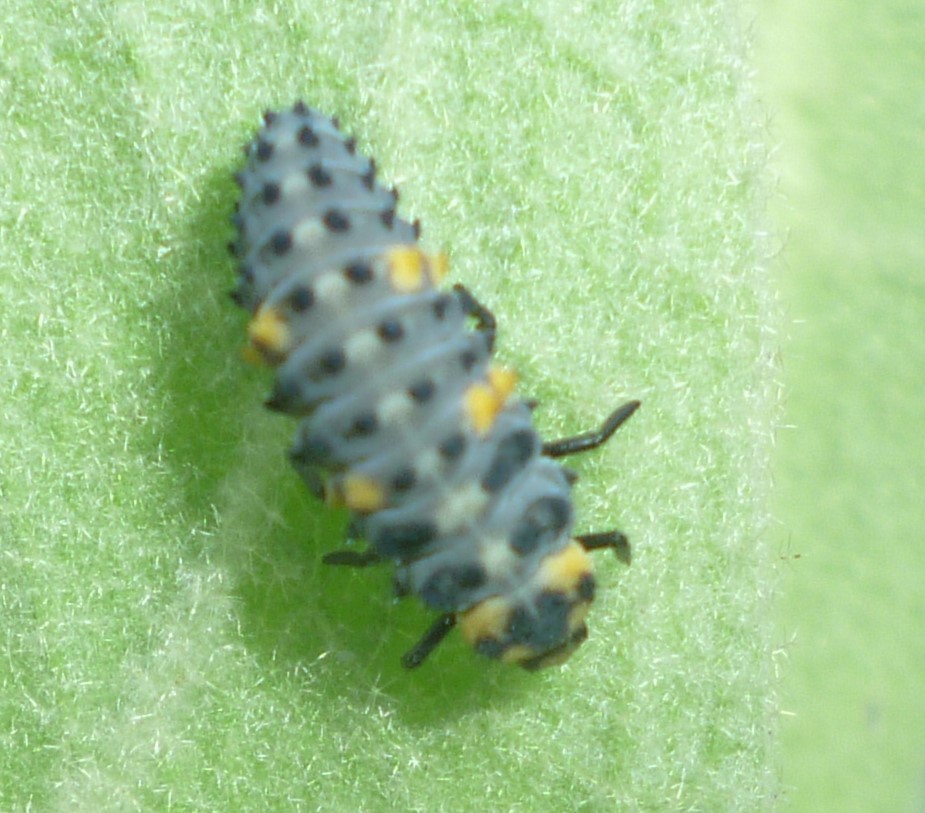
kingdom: Animalia
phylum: Arthropoda
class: Insecta
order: Coleoptera
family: Coccinellidae
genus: Coccinella
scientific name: Coccinella septempunctata
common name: Sevenspotted lady beetle
